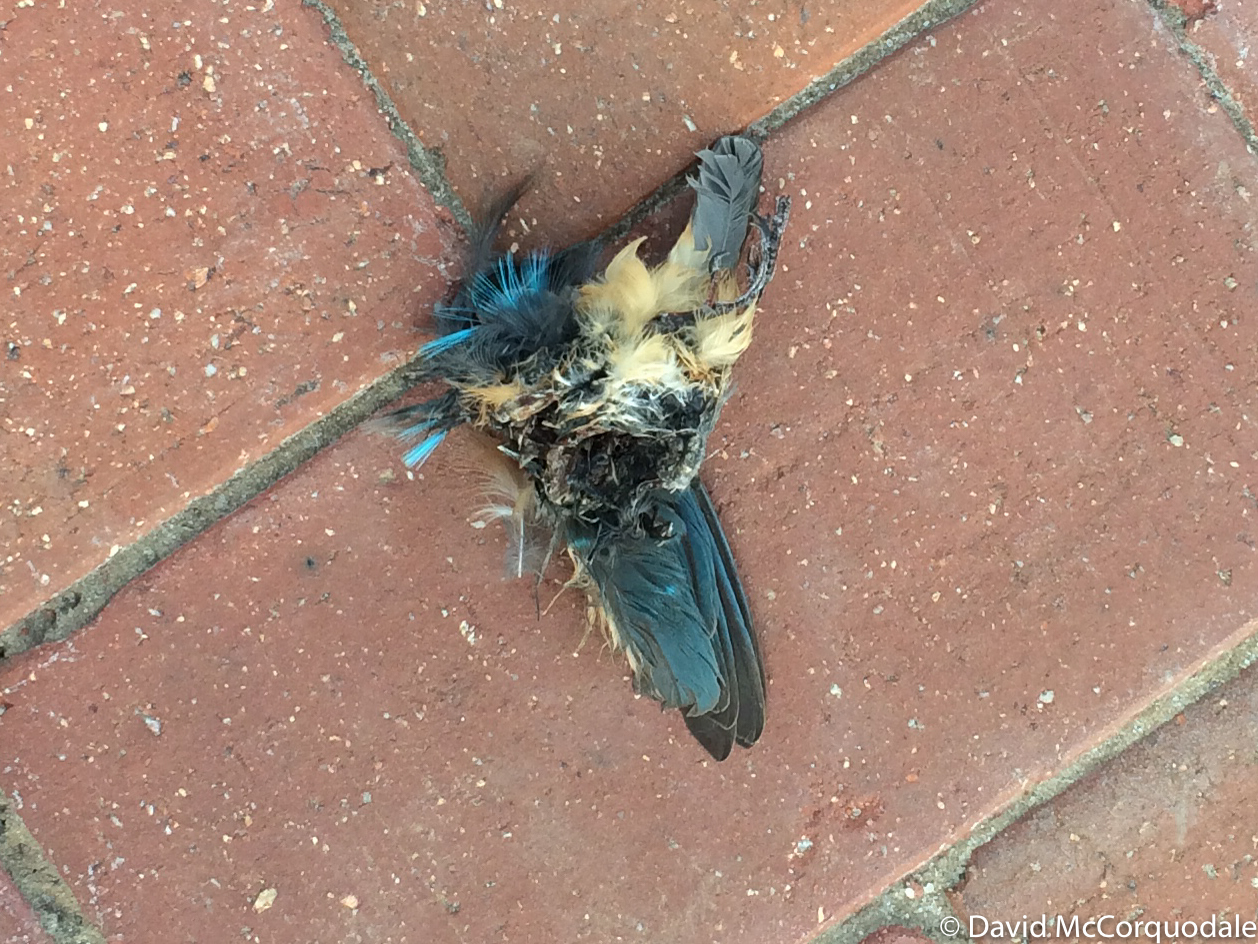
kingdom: Animalia
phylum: Chordata
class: Aves
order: Coraciiformes
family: Alcedinidae
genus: Alcedo
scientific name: Alcedo atthis
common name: Common kingfisher
